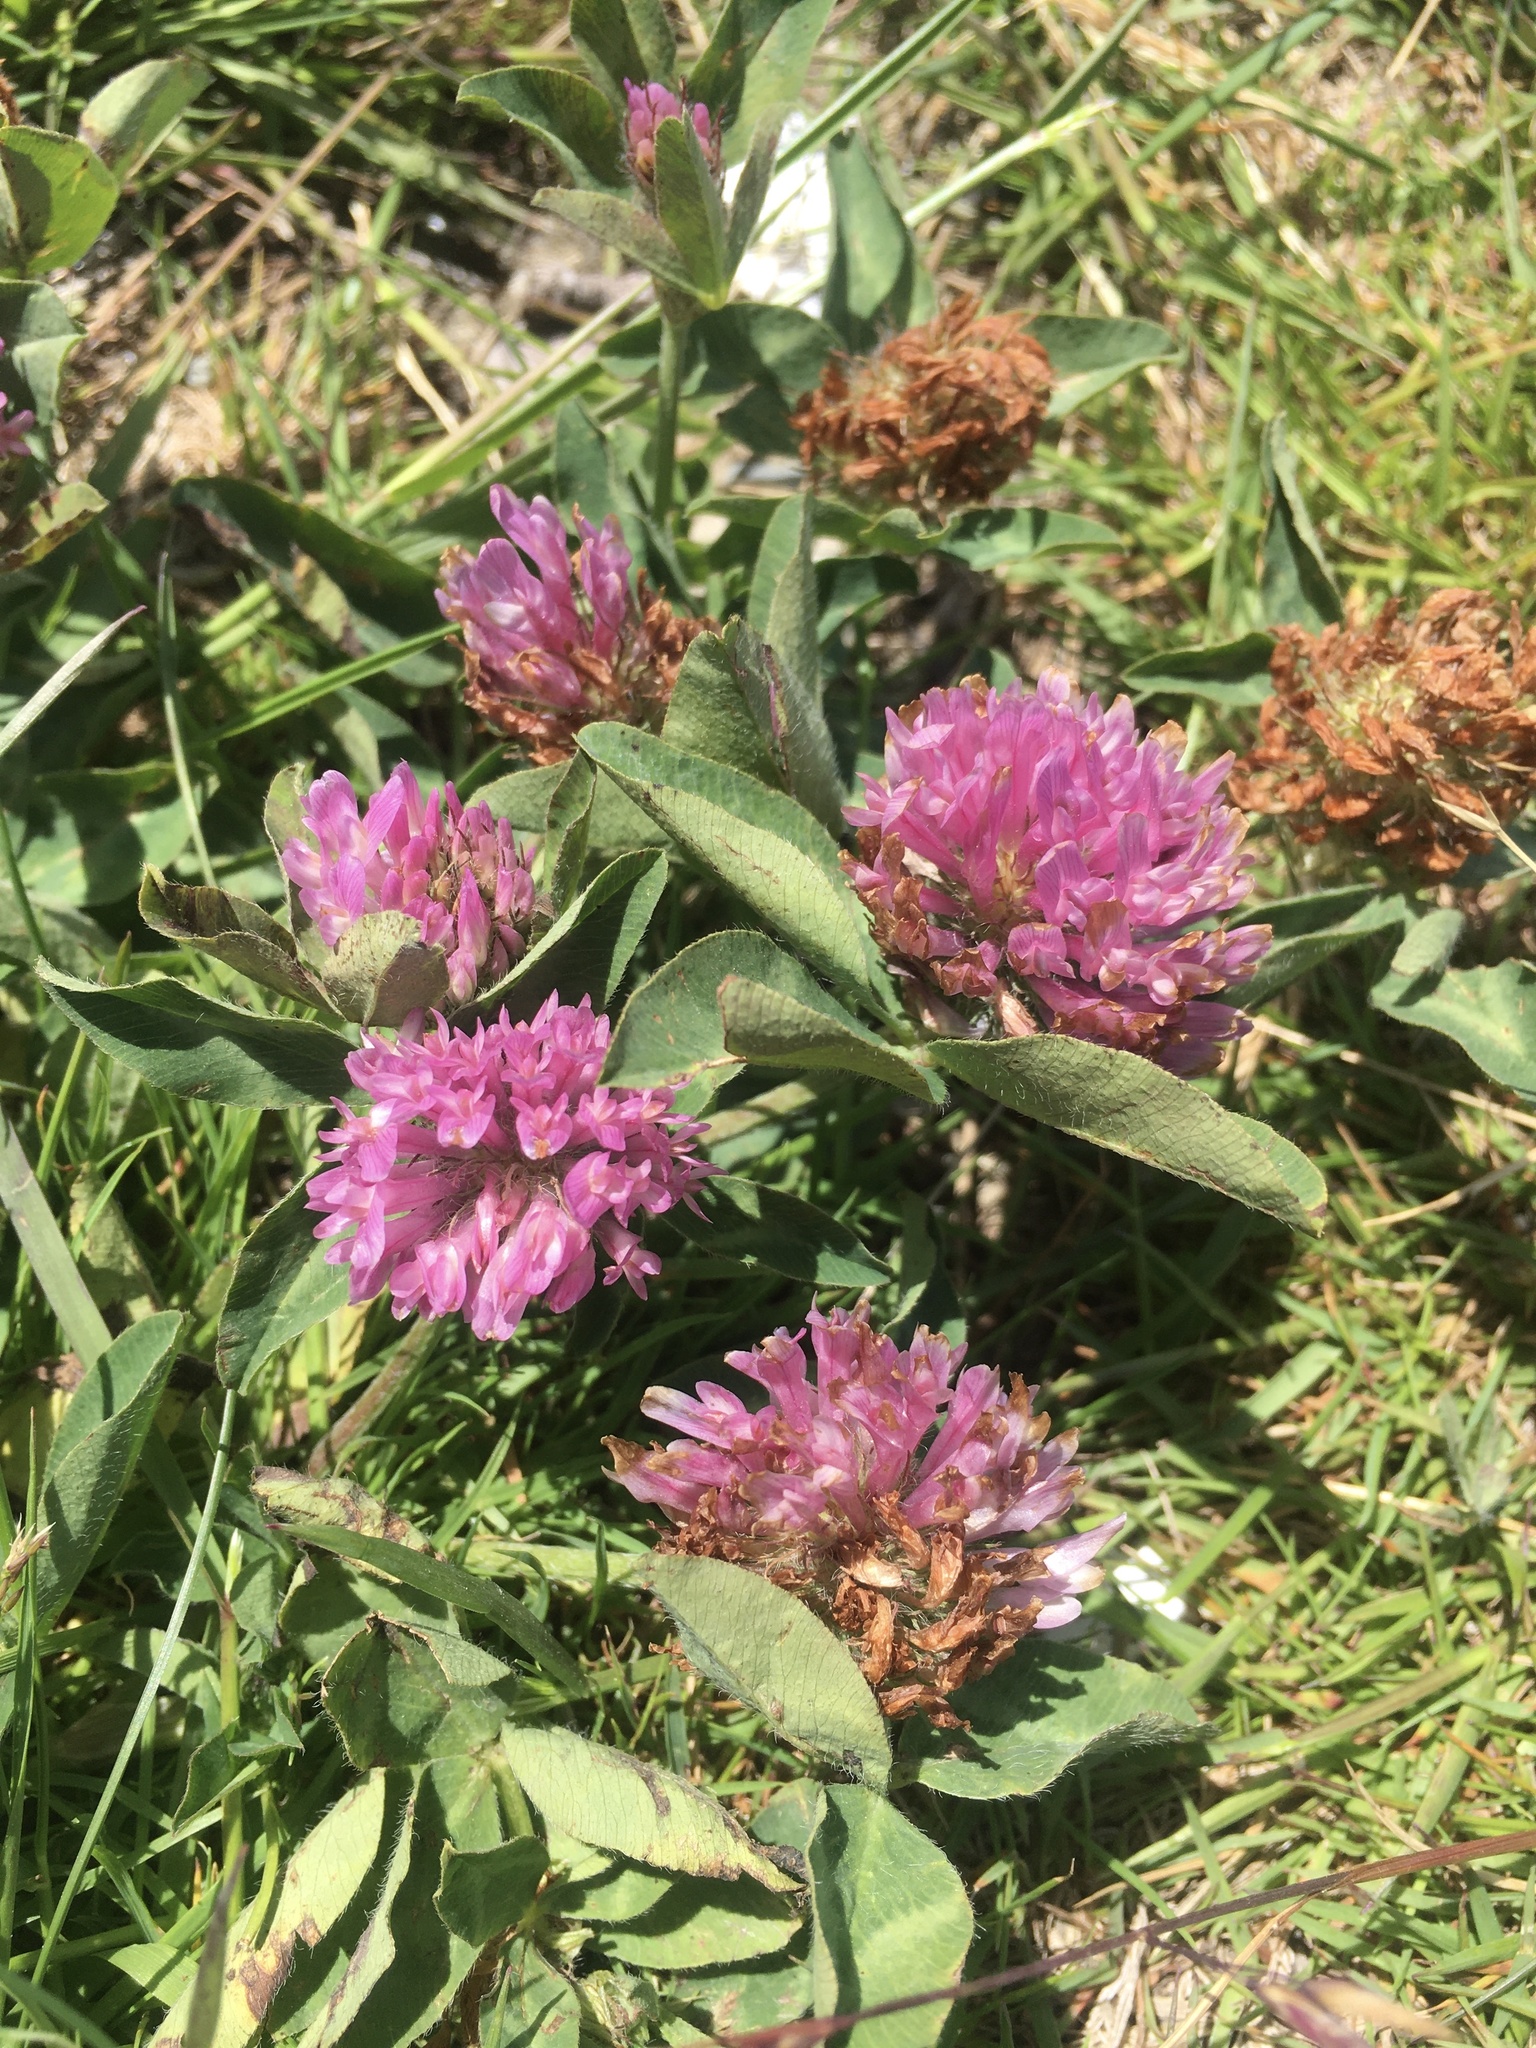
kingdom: Plantae
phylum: Tracheophyta
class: Magnoliopsida
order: Fabales
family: Fabaceae
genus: Trifolium
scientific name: Trifolium pratense
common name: Red clover
